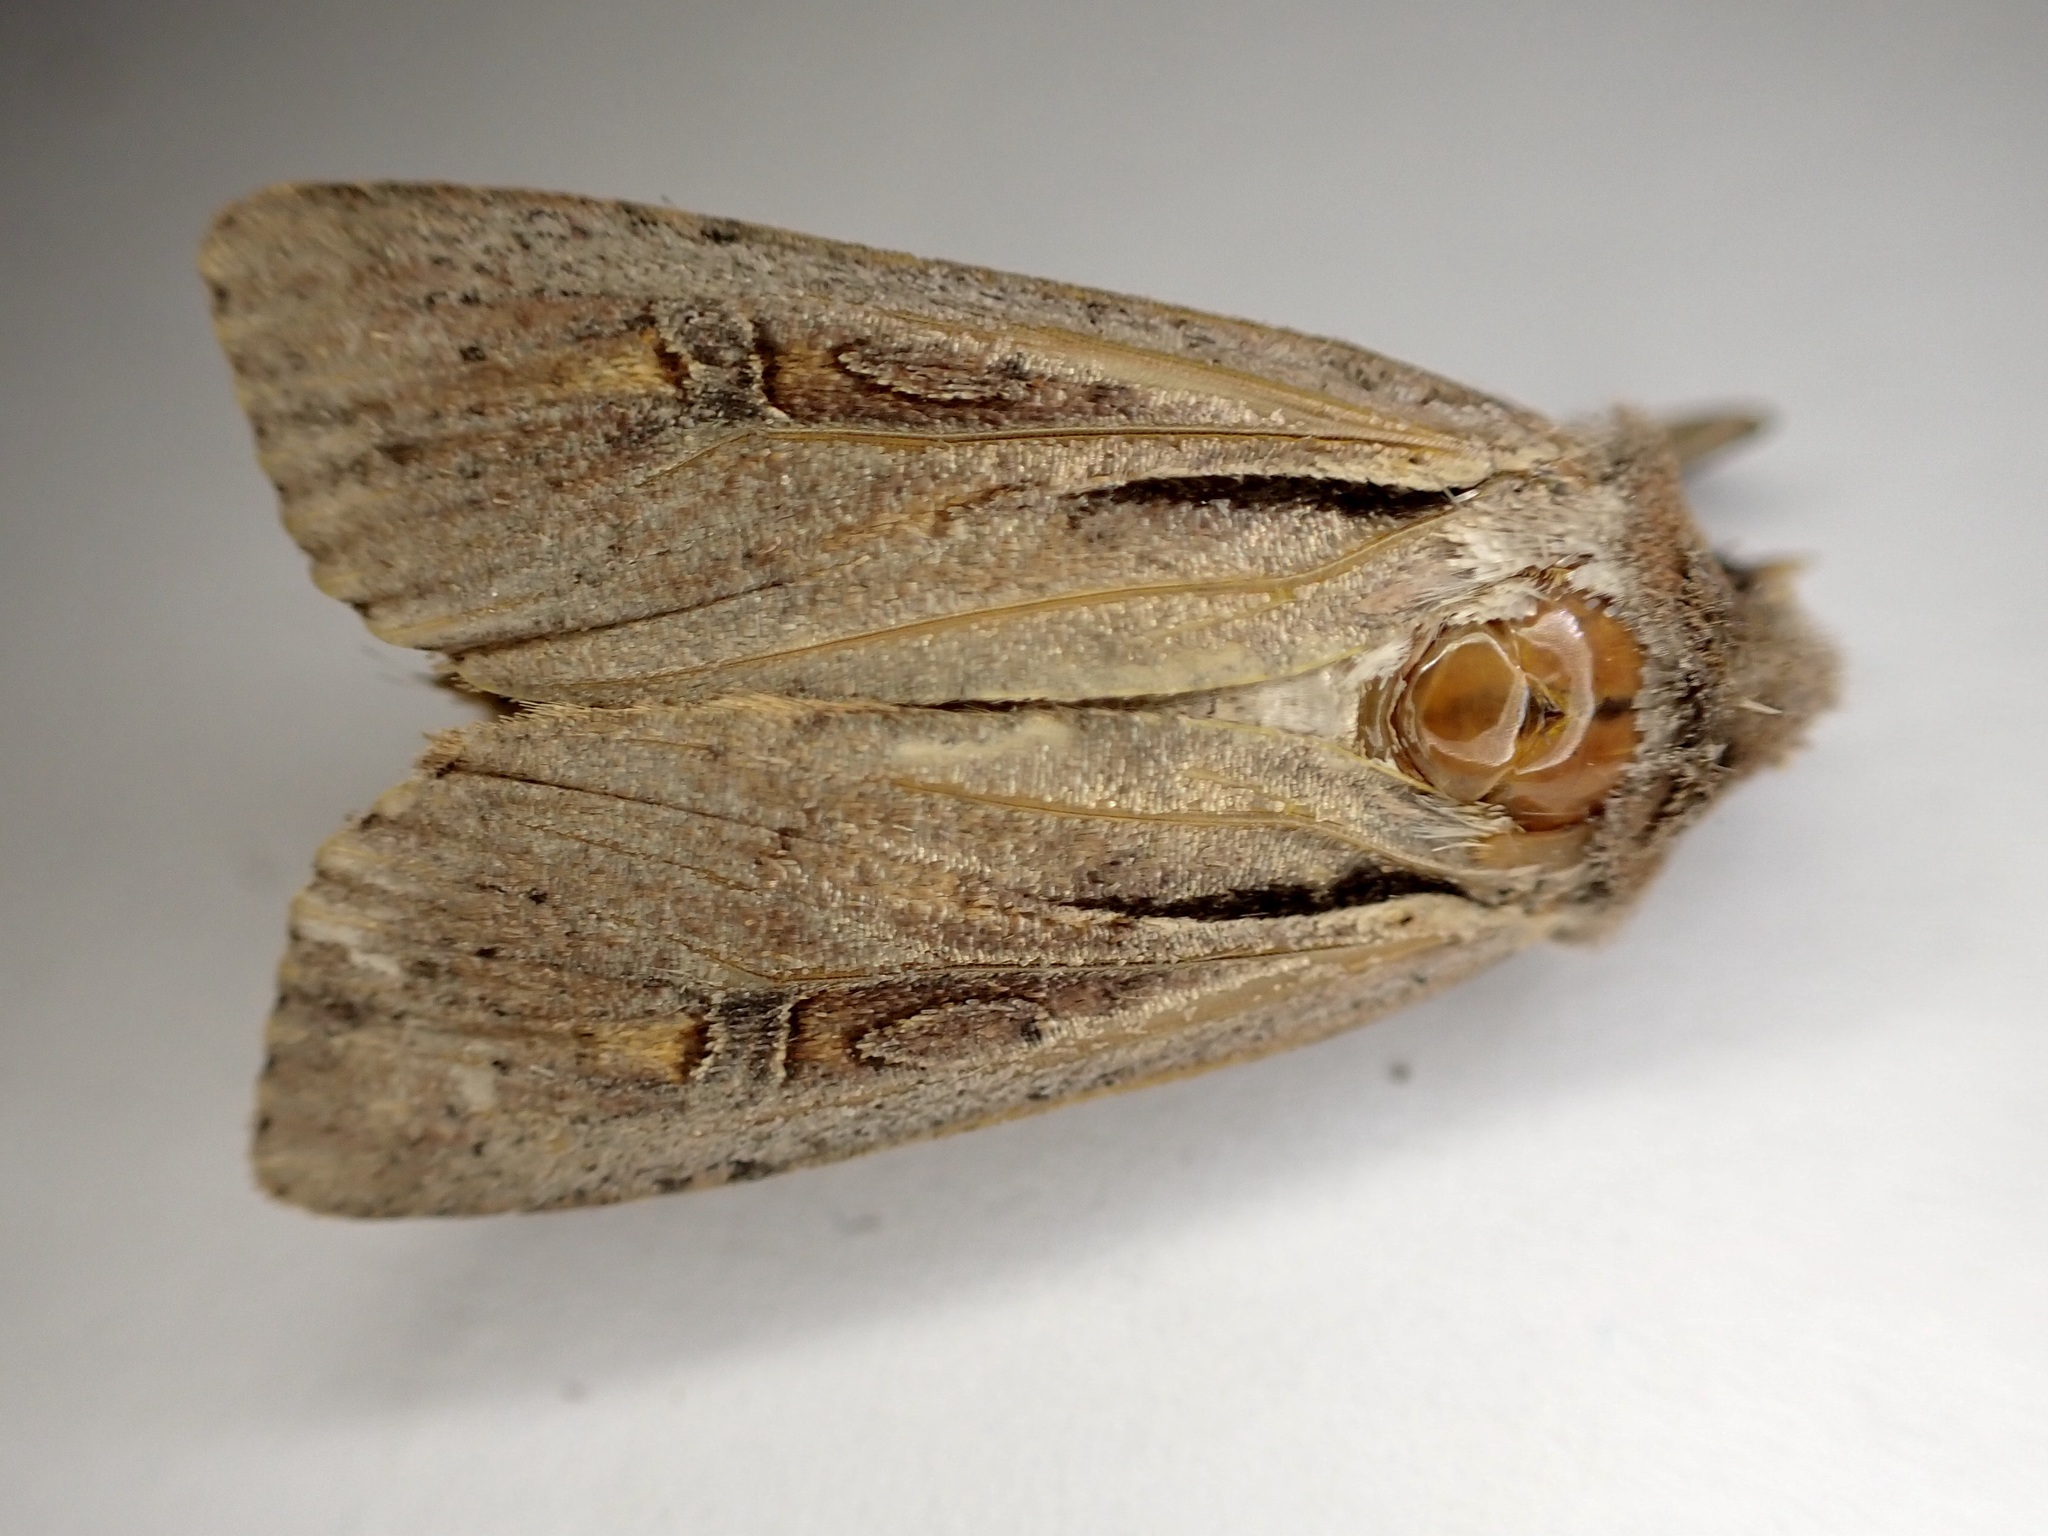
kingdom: Animalia
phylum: Arthropoda
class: Insecta
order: Lepidoptera
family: Noctuidae
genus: Ichneutica
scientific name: Ichneutica atristriga
